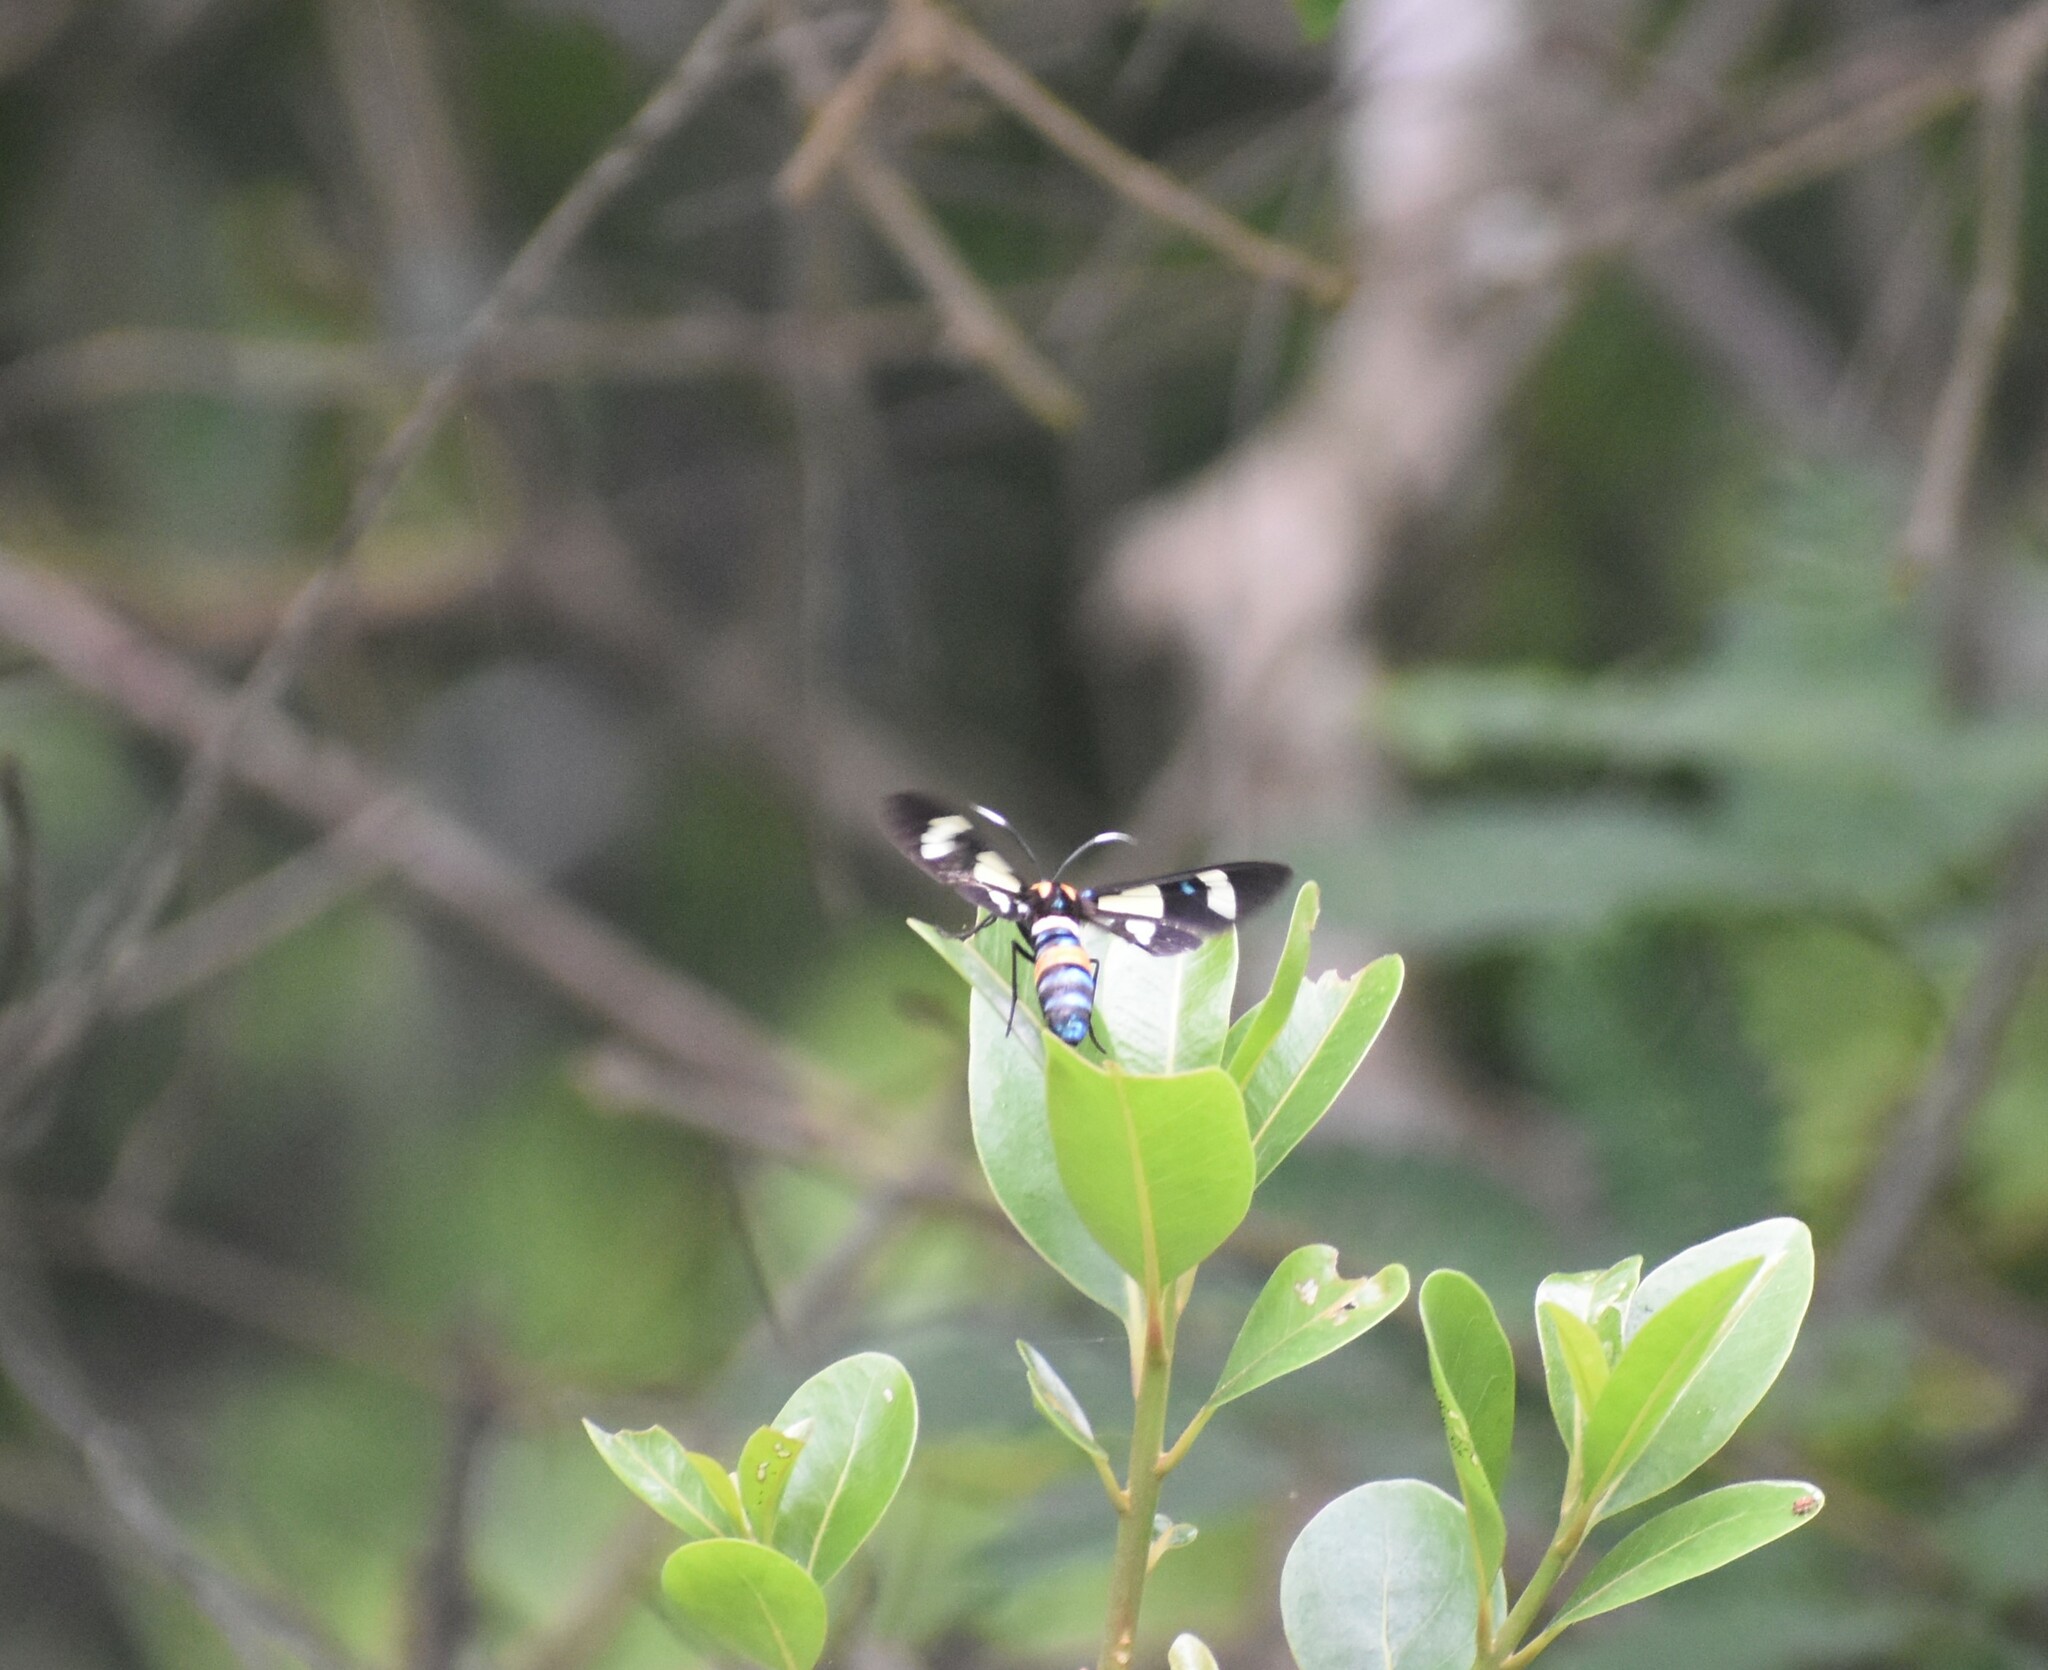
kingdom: Animalia
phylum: Arthropoda
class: Insecta
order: Lepidoptera
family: Erebidae
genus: Euchromia
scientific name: Euchromia folletii
